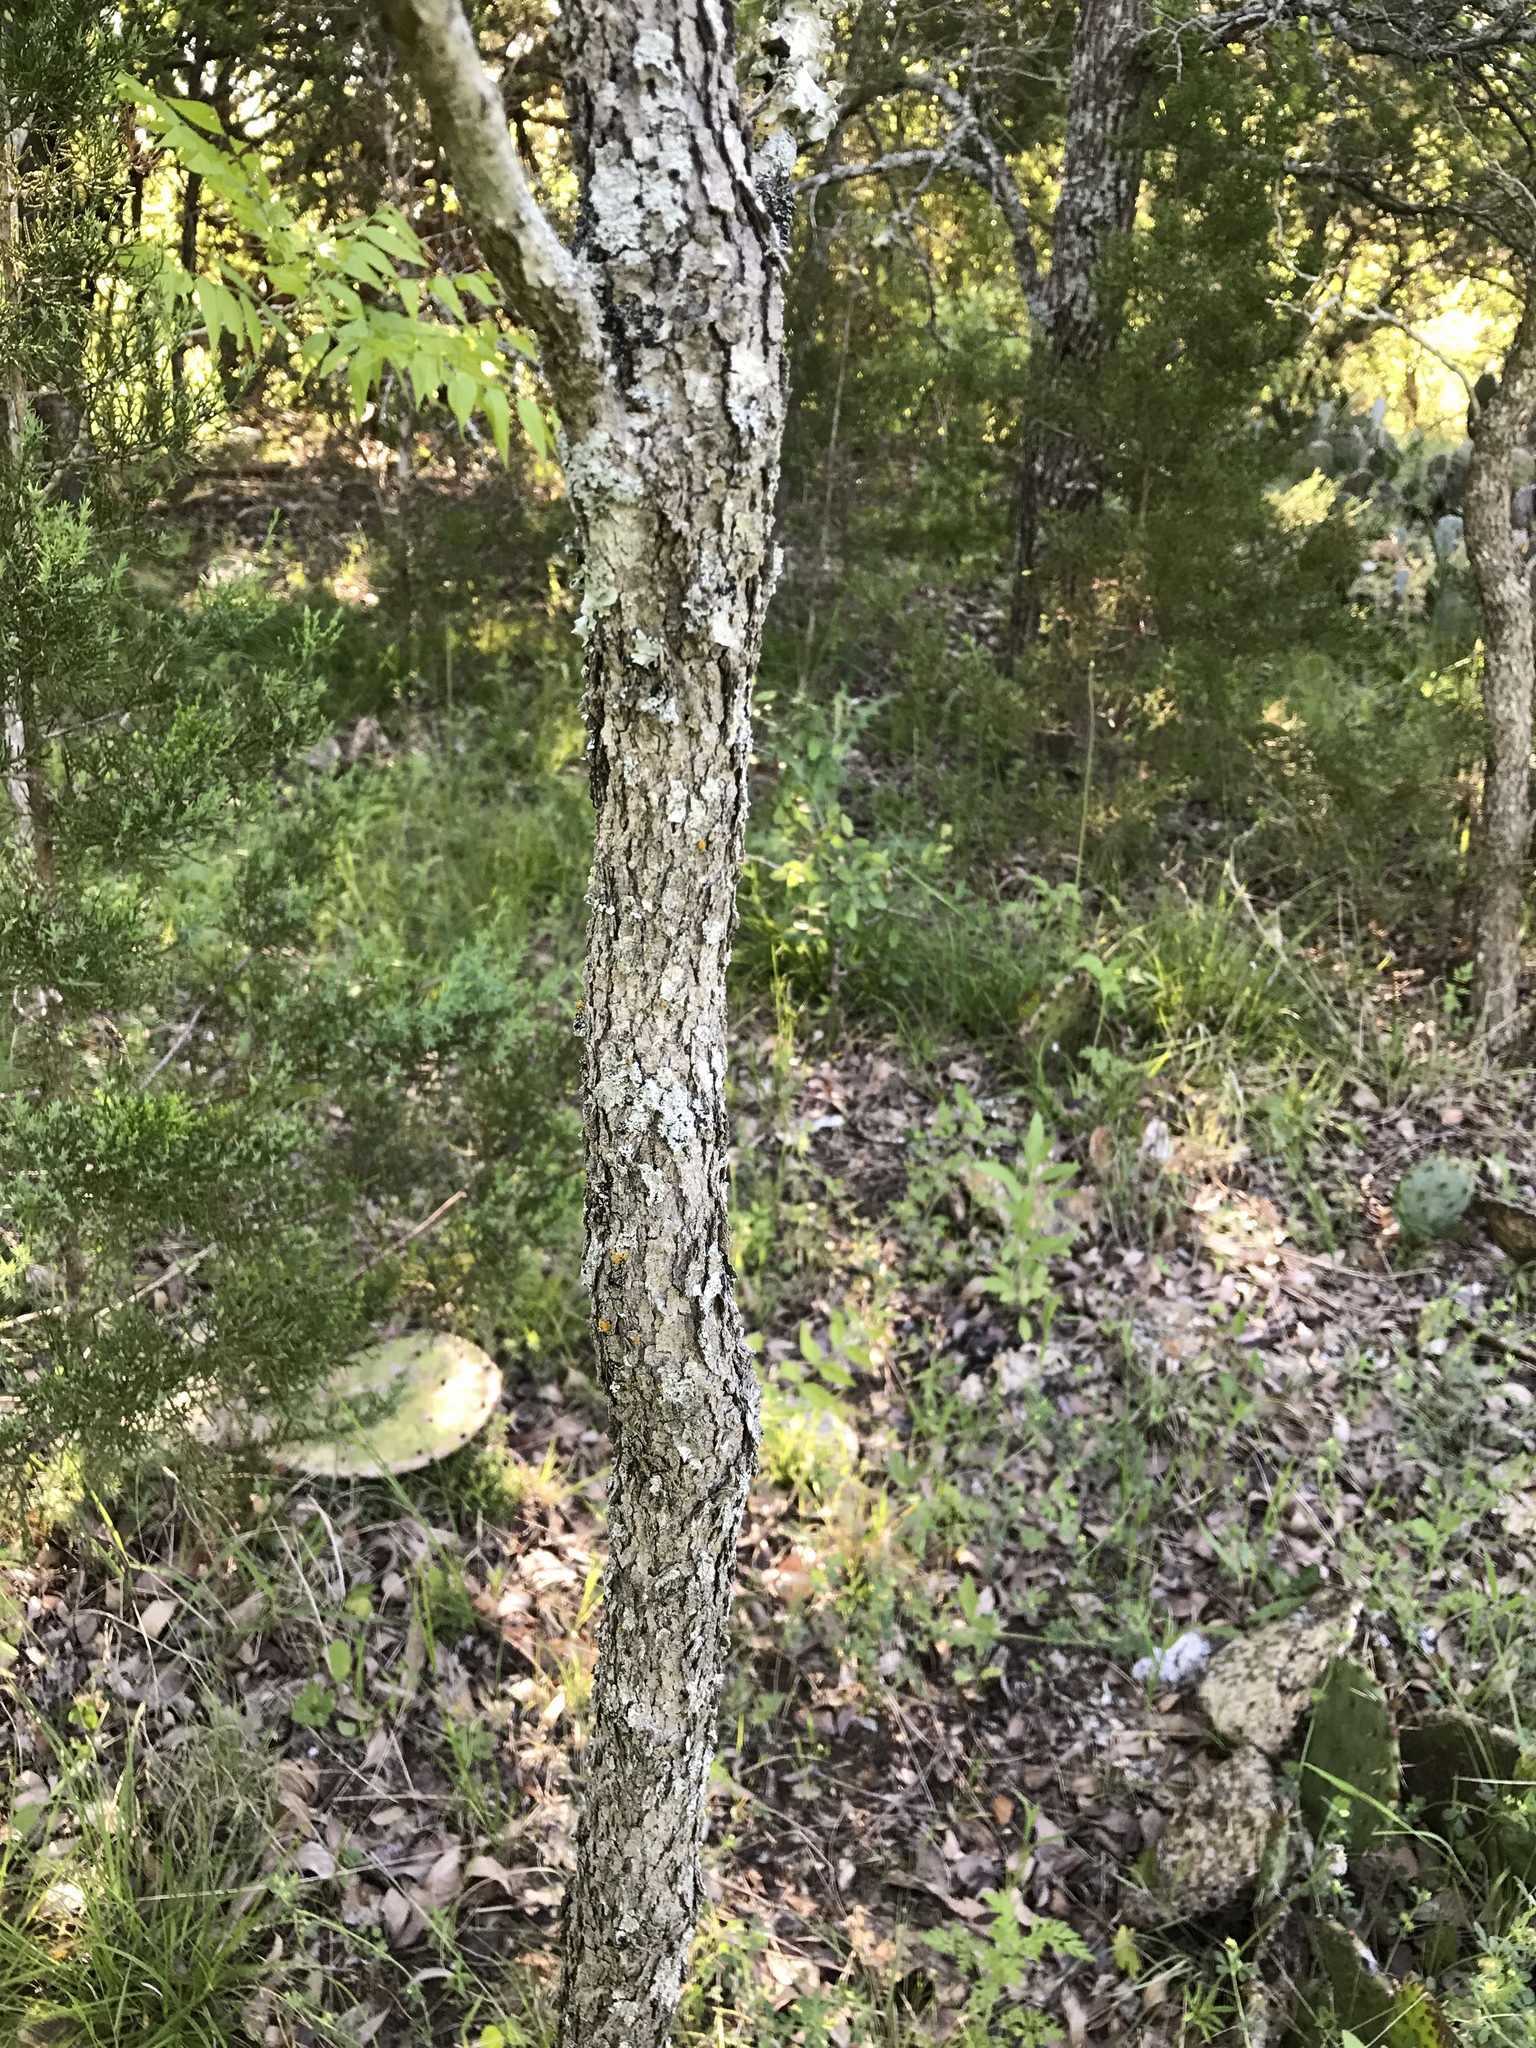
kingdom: Plantae
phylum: Tracheophyta
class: Magnoliopsida
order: Sapindales
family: Sapindaceae
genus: Sapindus
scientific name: Sapindus drummondii
